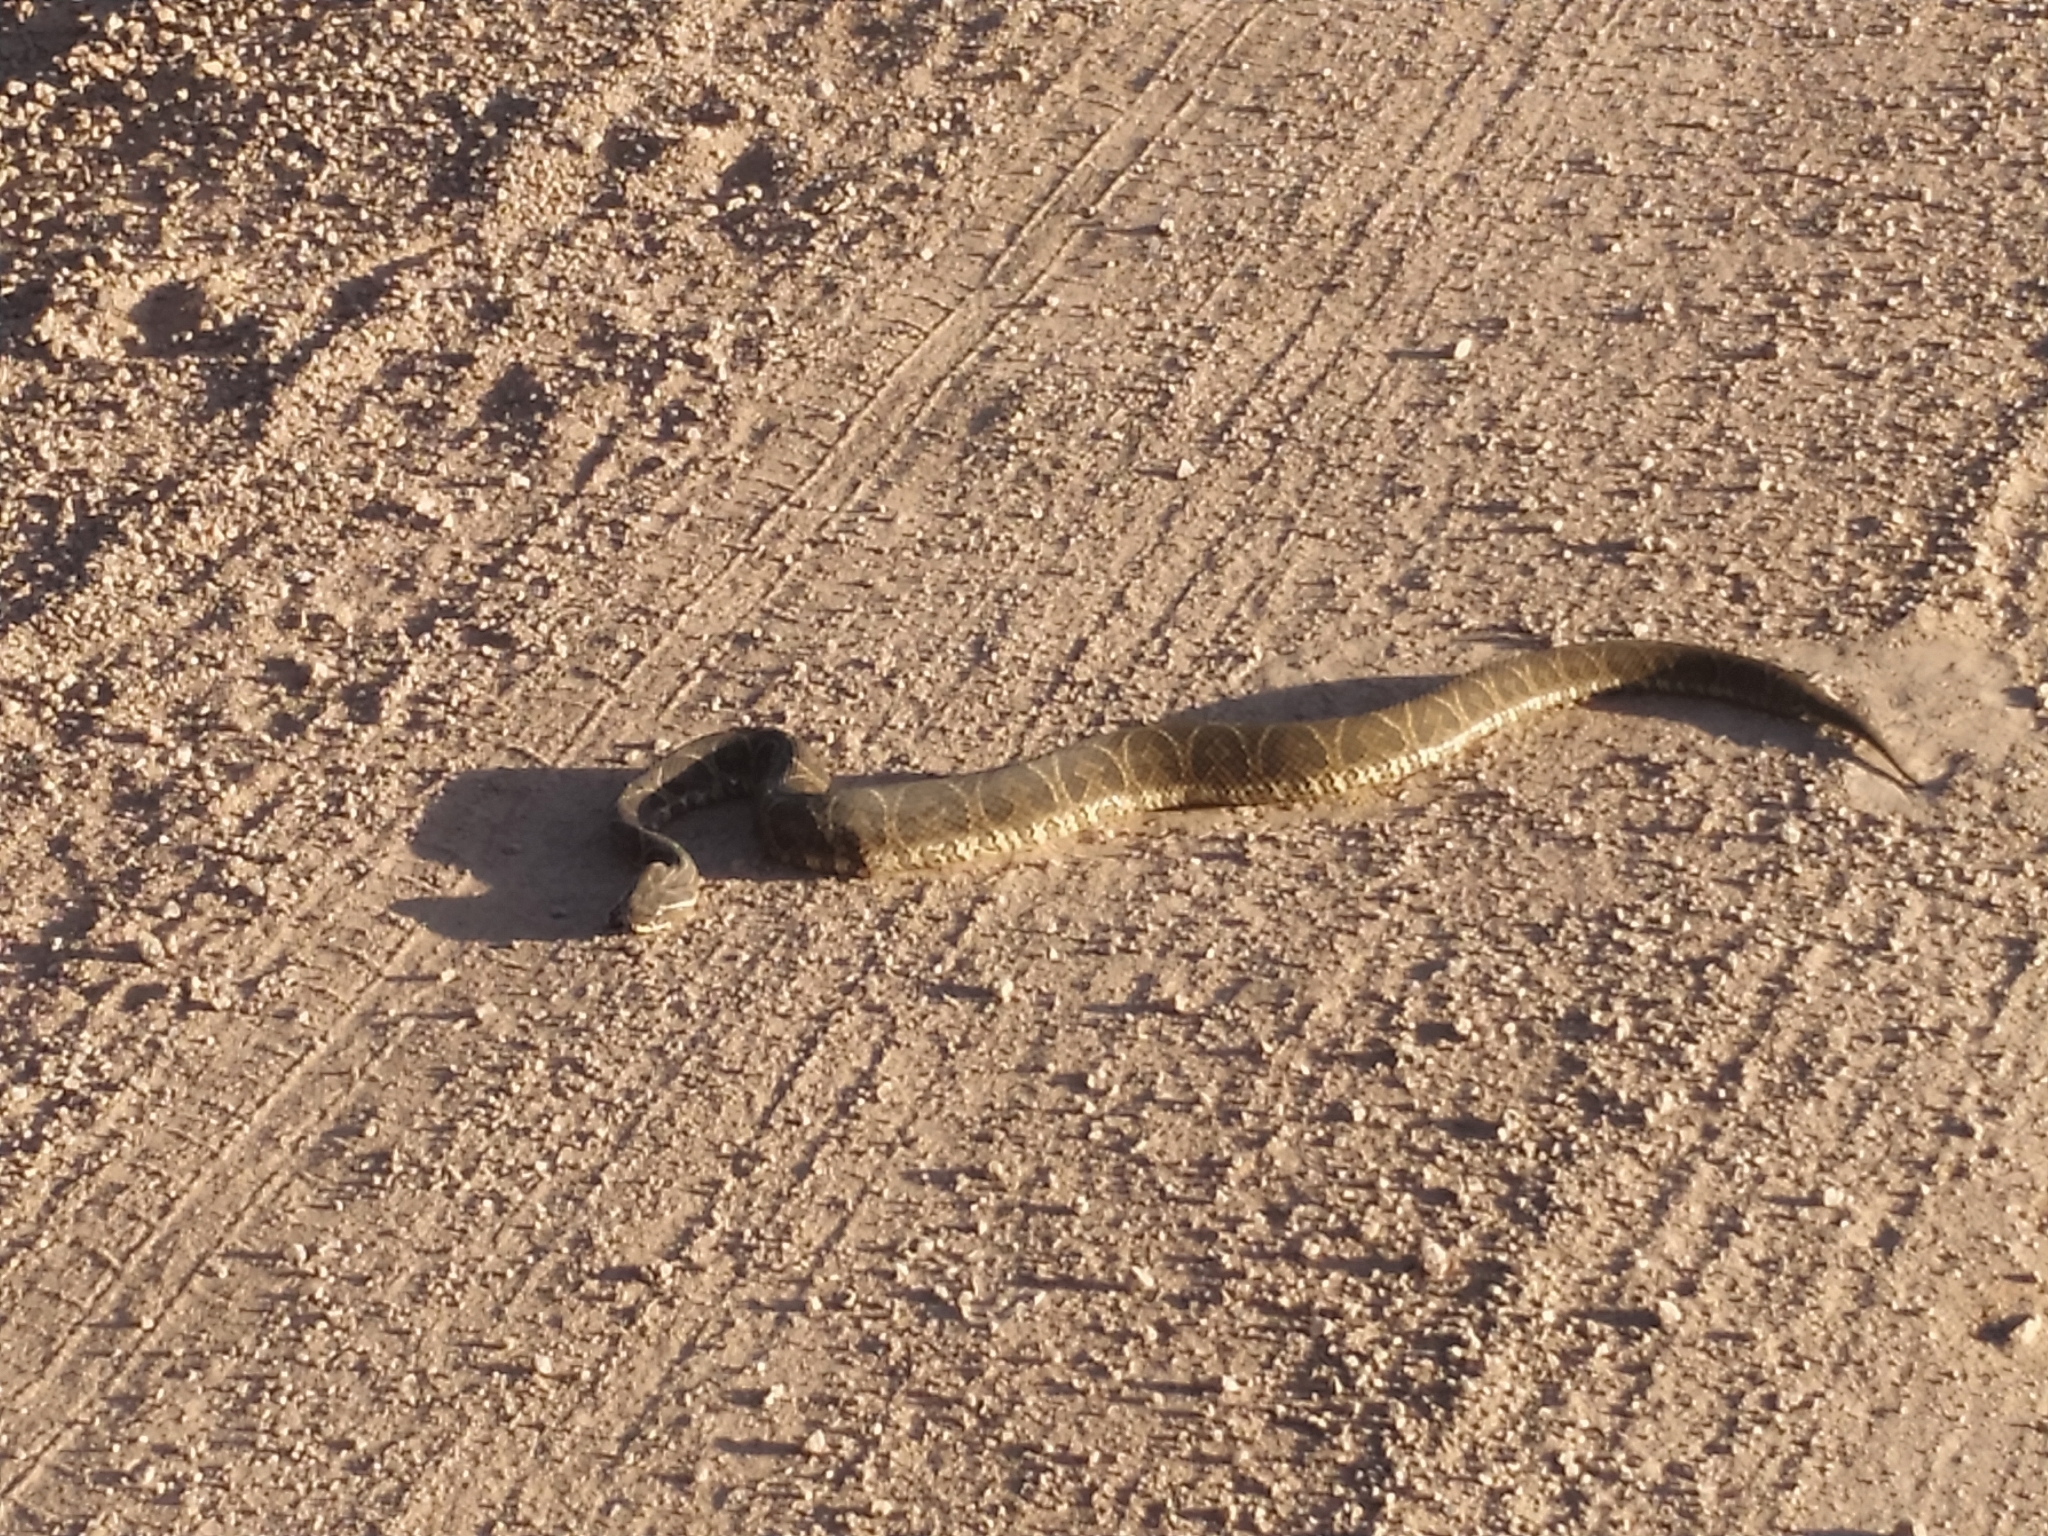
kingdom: Animalia
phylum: Chordata
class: Squamata
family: Viperidae
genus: Bothrops
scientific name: Bothrops alternatus
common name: Urutu
